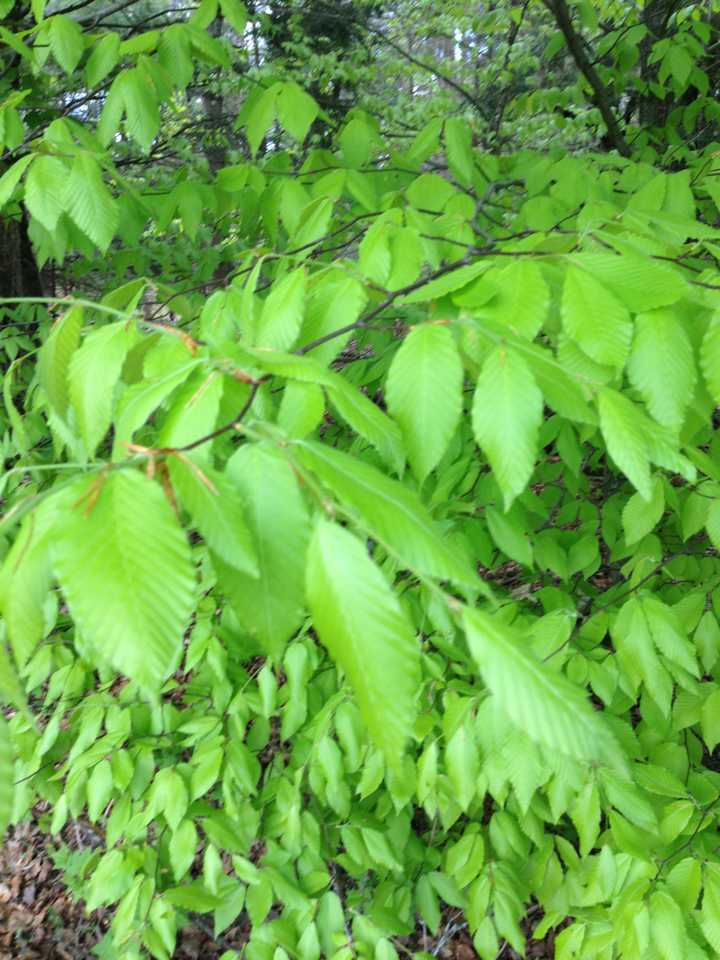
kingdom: Plantae
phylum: Tracheophyta
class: Magnoliopsida
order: Fagales
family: Fagaceae
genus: Fagus
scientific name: Fagus grandifolia
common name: American beech
